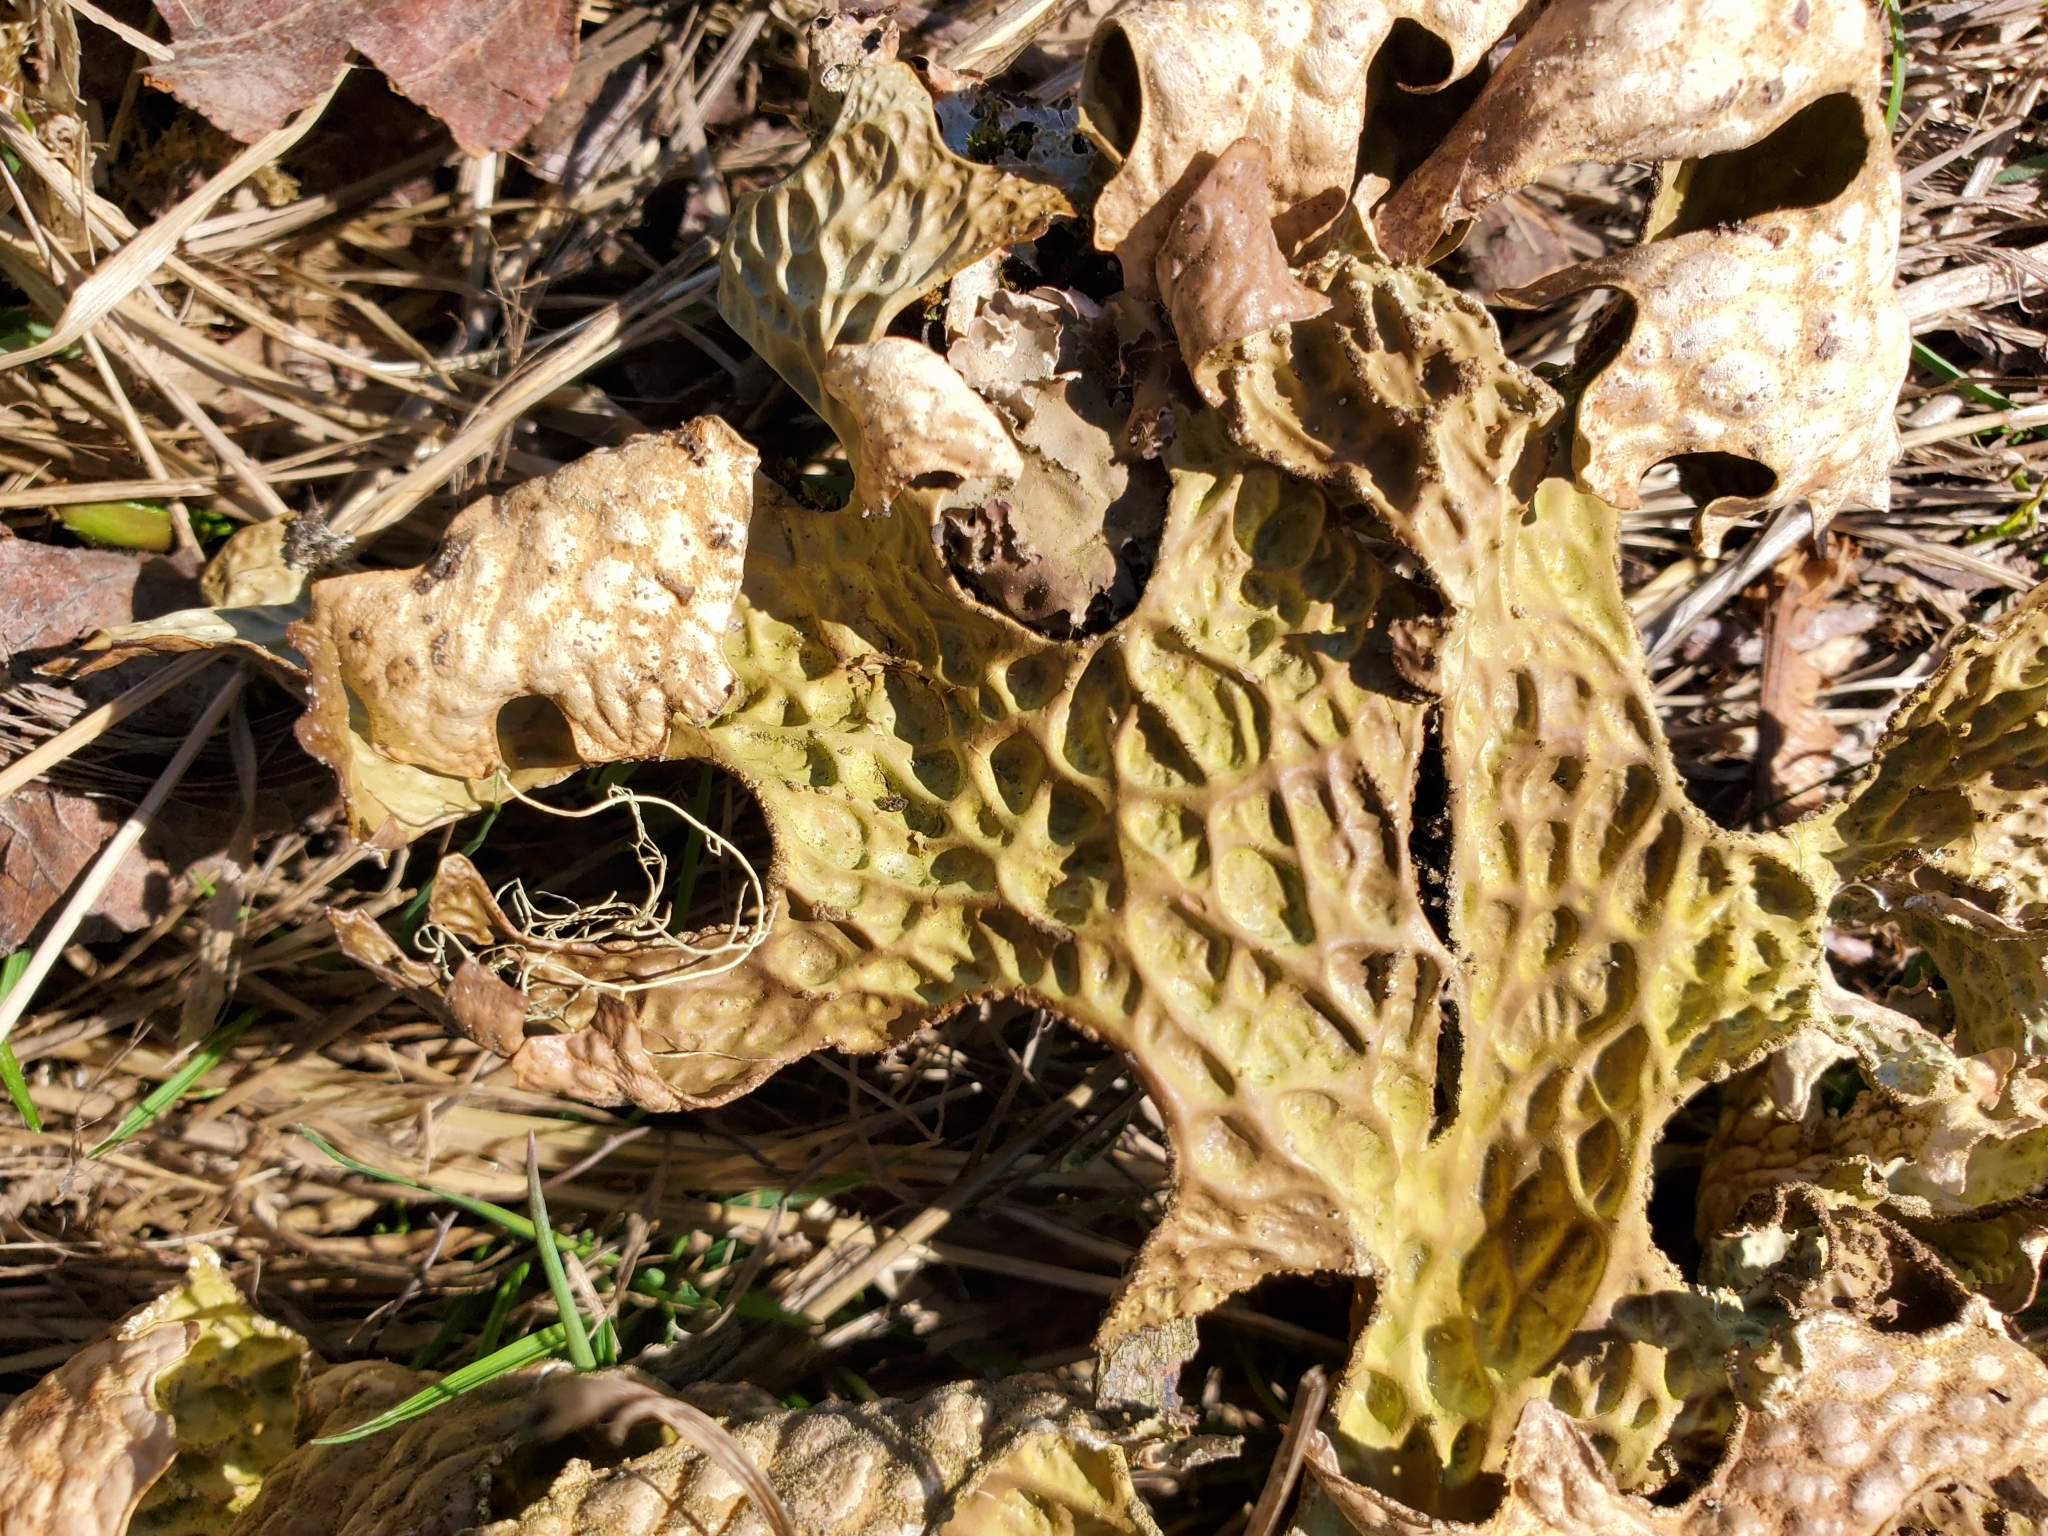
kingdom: Fungi
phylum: Ascomycota
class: Lecanoromycetes
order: Peltigerales
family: Lobariaceae
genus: Lobaria
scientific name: Lobaria pulmonaria
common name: Lungwort
